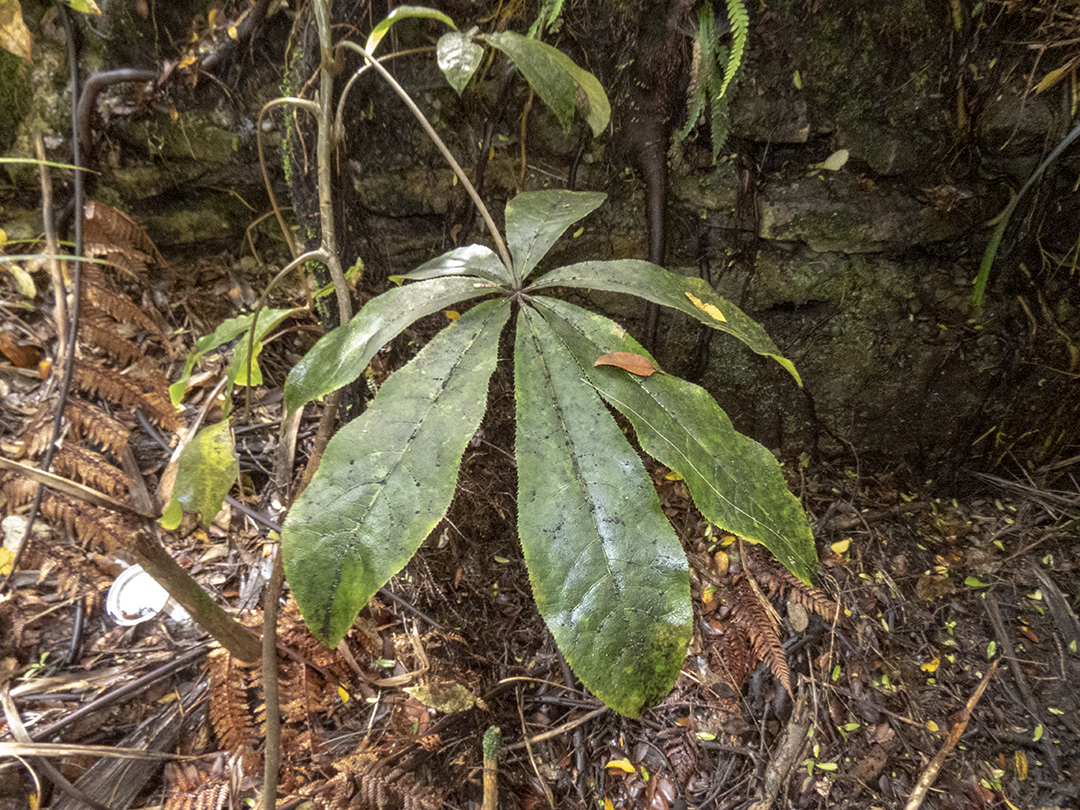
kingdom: Plantae
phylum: Tracheophyta
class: Magnoliopsida
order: Apiales
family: Araliaceae
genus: Schefflera
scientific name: Schefflera digitata
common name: Pate
